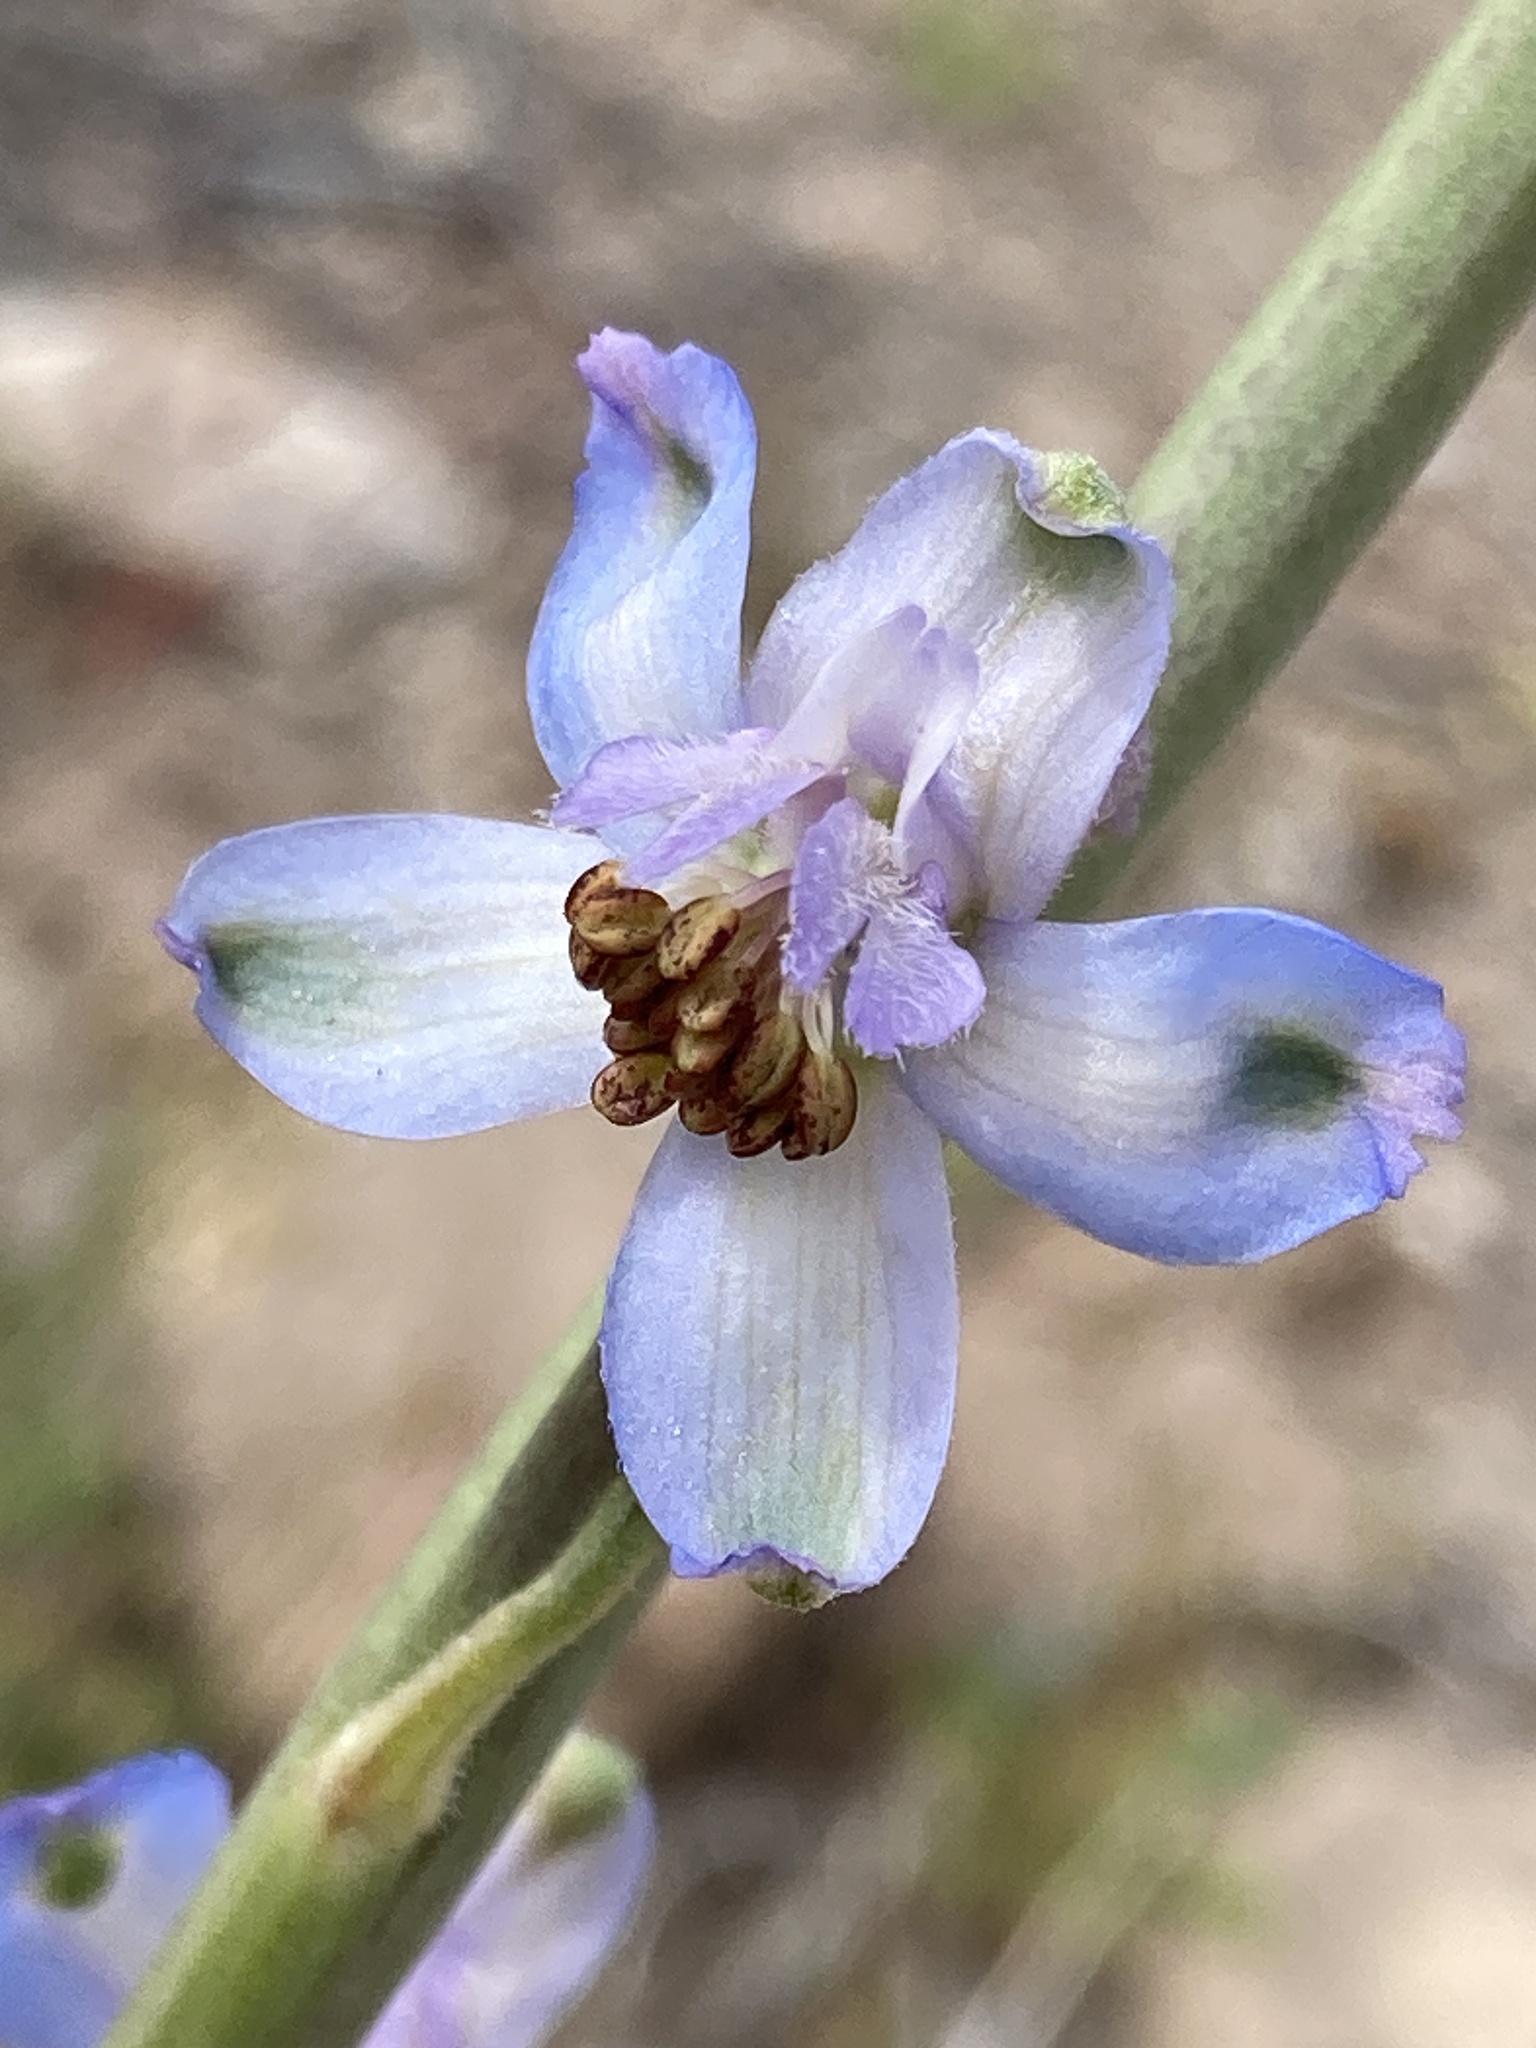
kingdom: Plantae
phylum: Tracheophyta
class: Magnoliopsida
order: Ranunculales
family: Ranunculaceae
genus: Delphinium
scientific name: Delphinium parishii
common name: Apache larkspur
